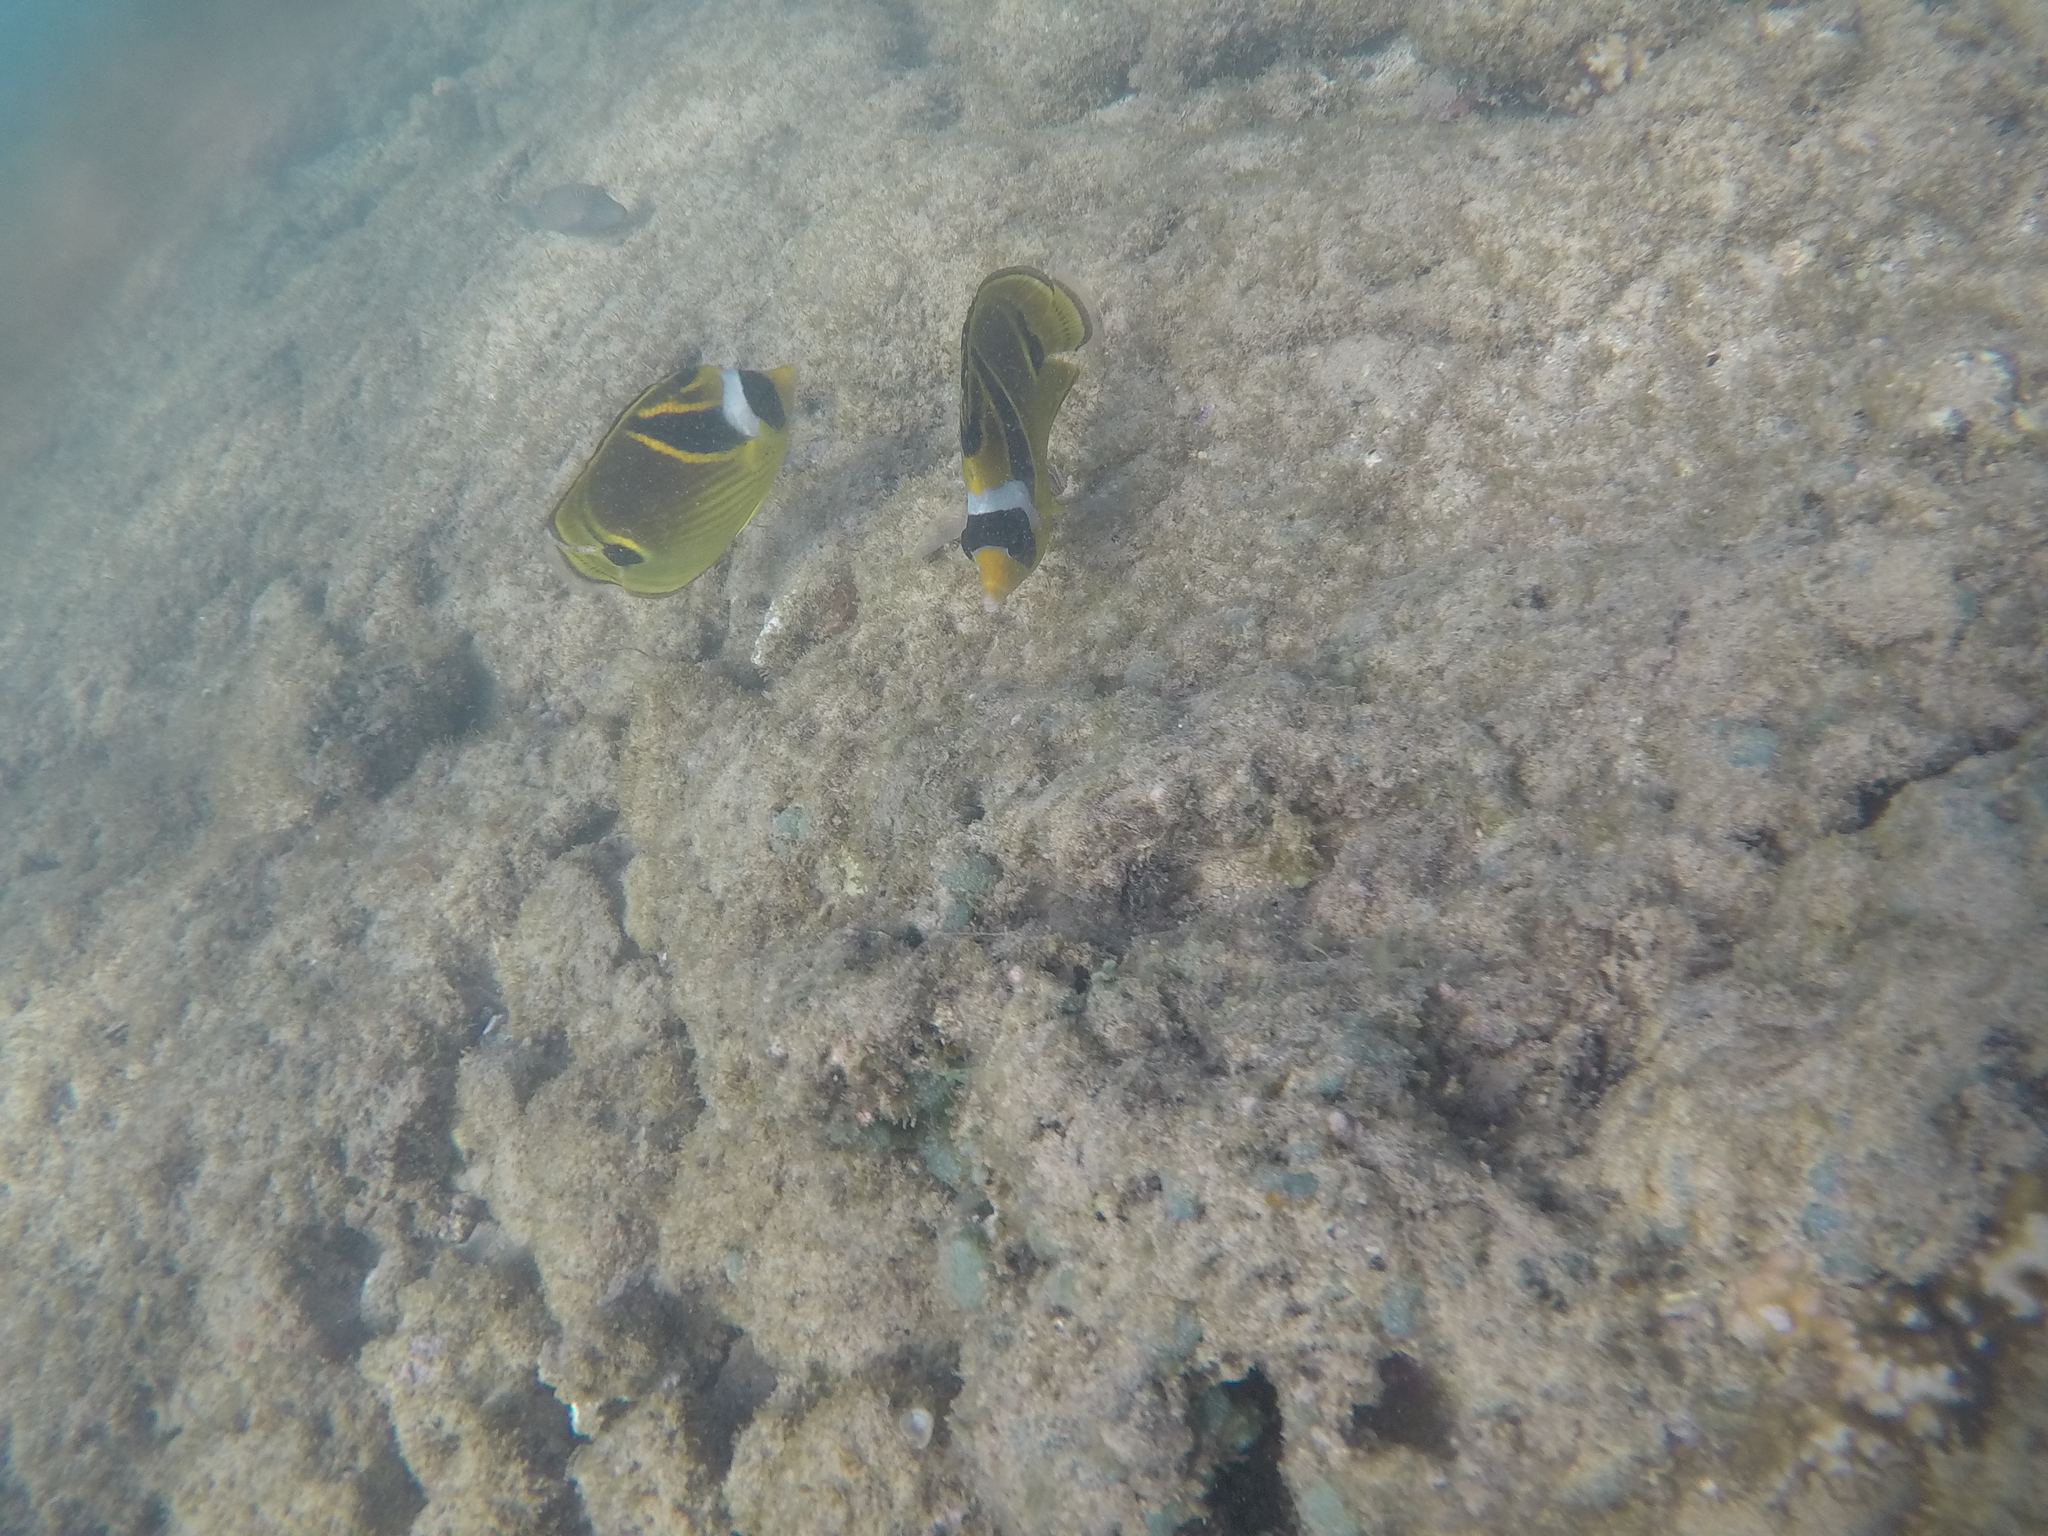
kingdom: Animalia
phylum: Chordata
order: Perciformes
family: Chaetodontidae
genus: Chaetodon
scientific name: Chaetodon lunula
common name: Raccoon butterflyfish
